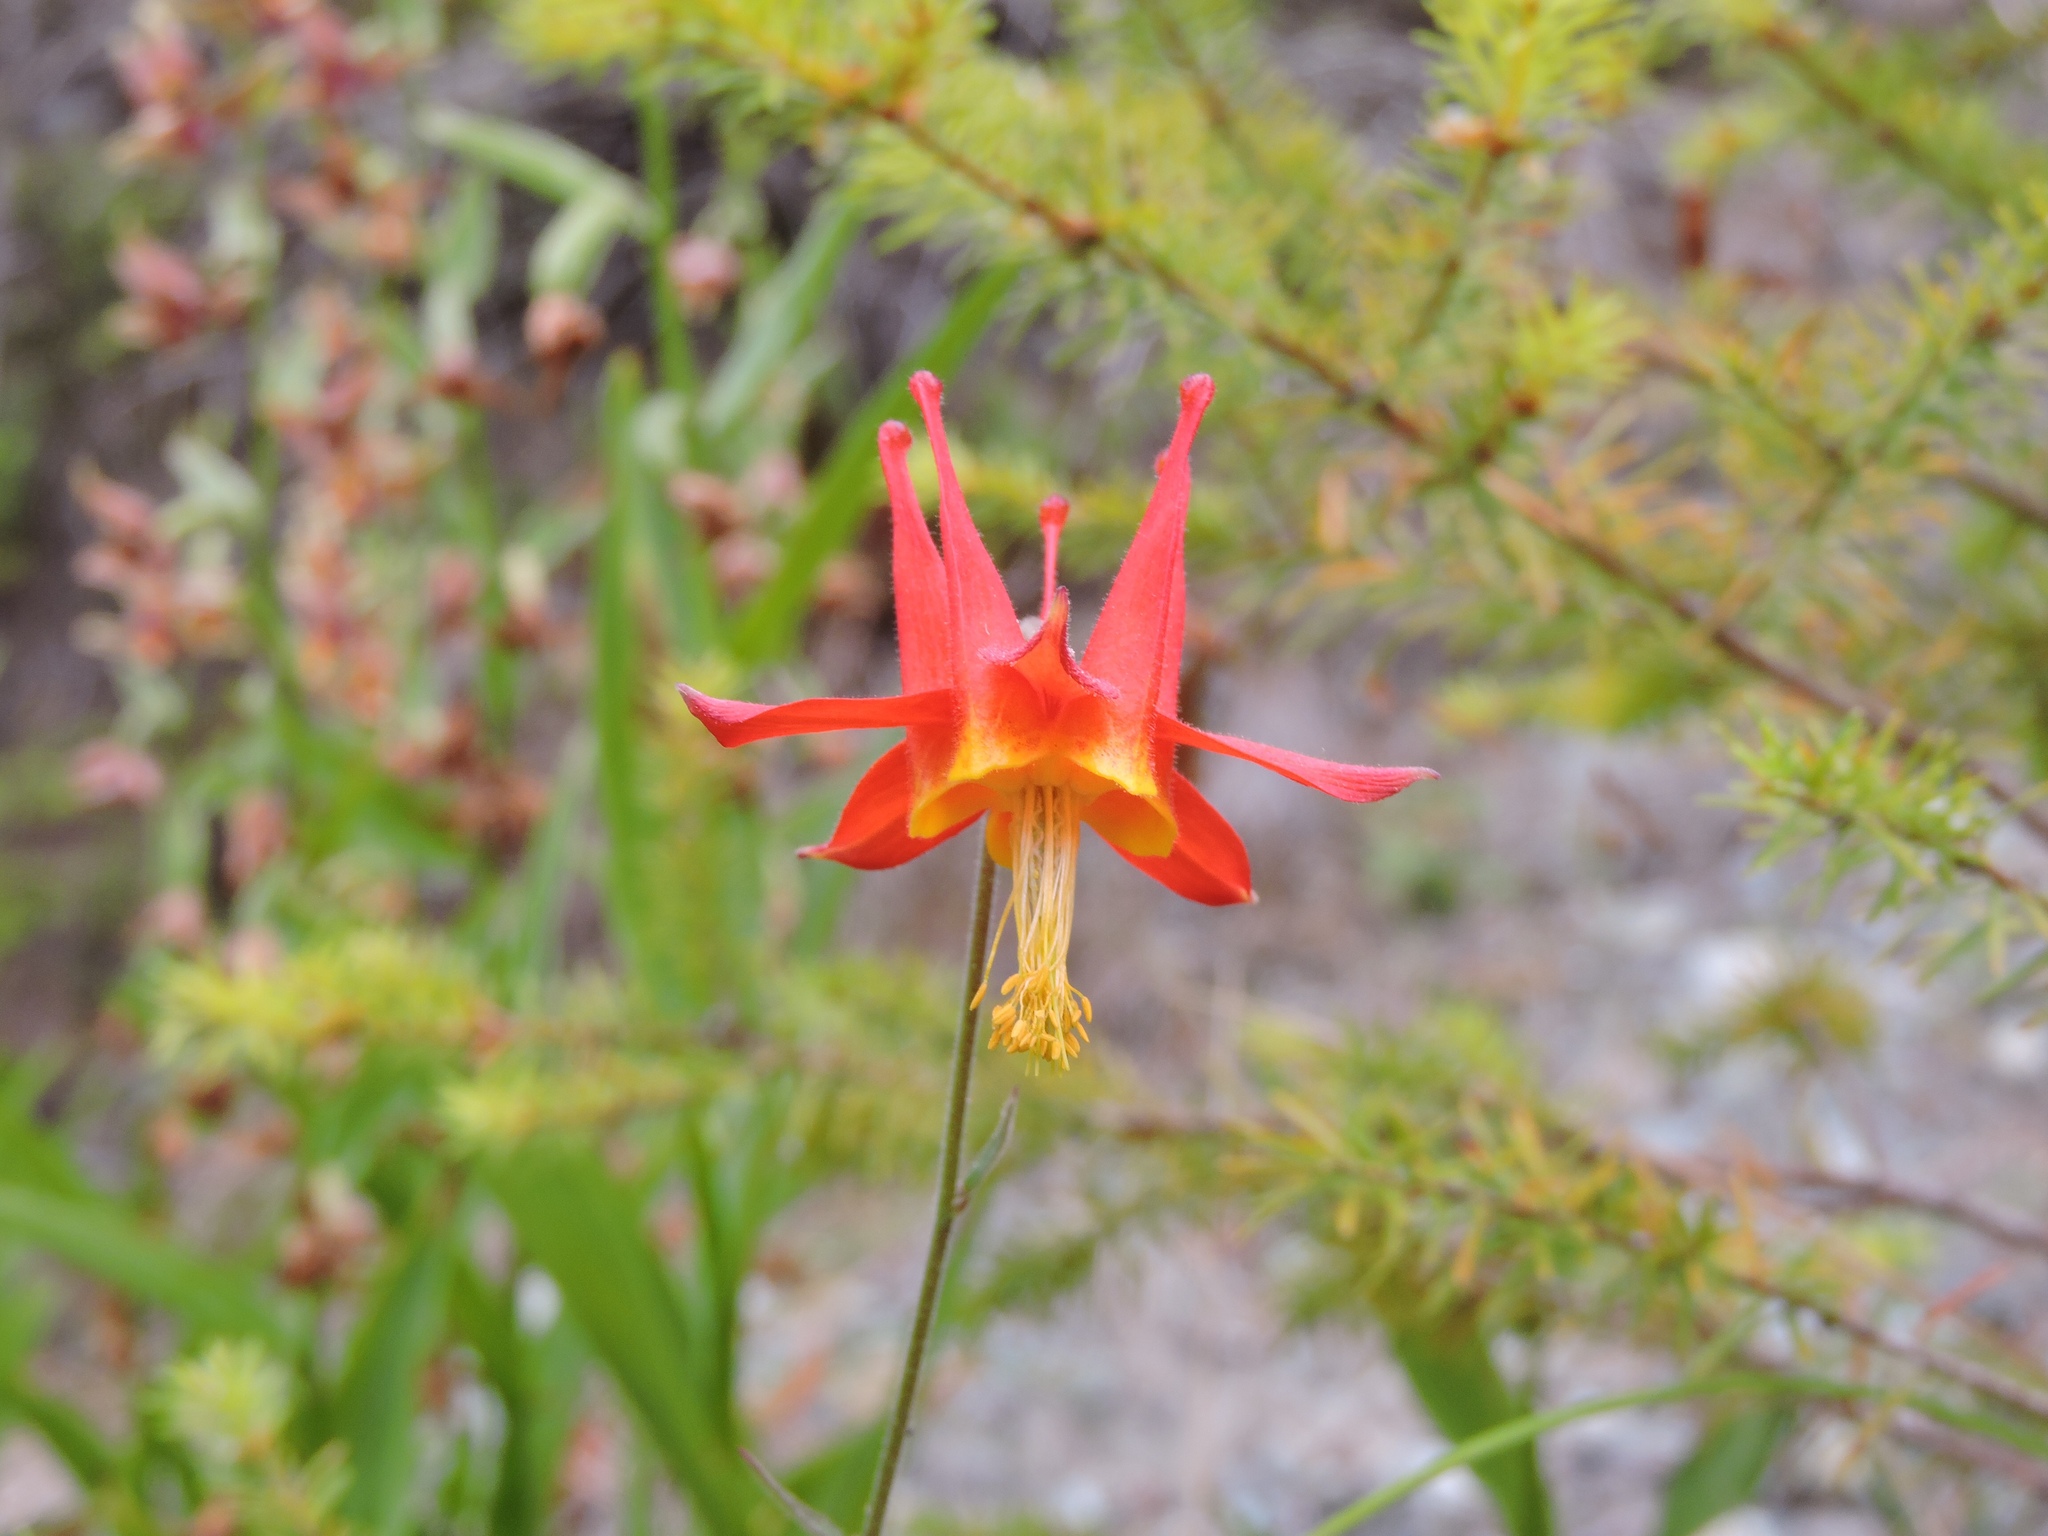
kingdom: Plantae
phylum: Tracheophyta
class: Magnoliopsida
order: Ranunculales
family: Ranunculaceae
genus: Aquilegia
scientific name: Aquilegia formosa
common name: Sitka columbine
